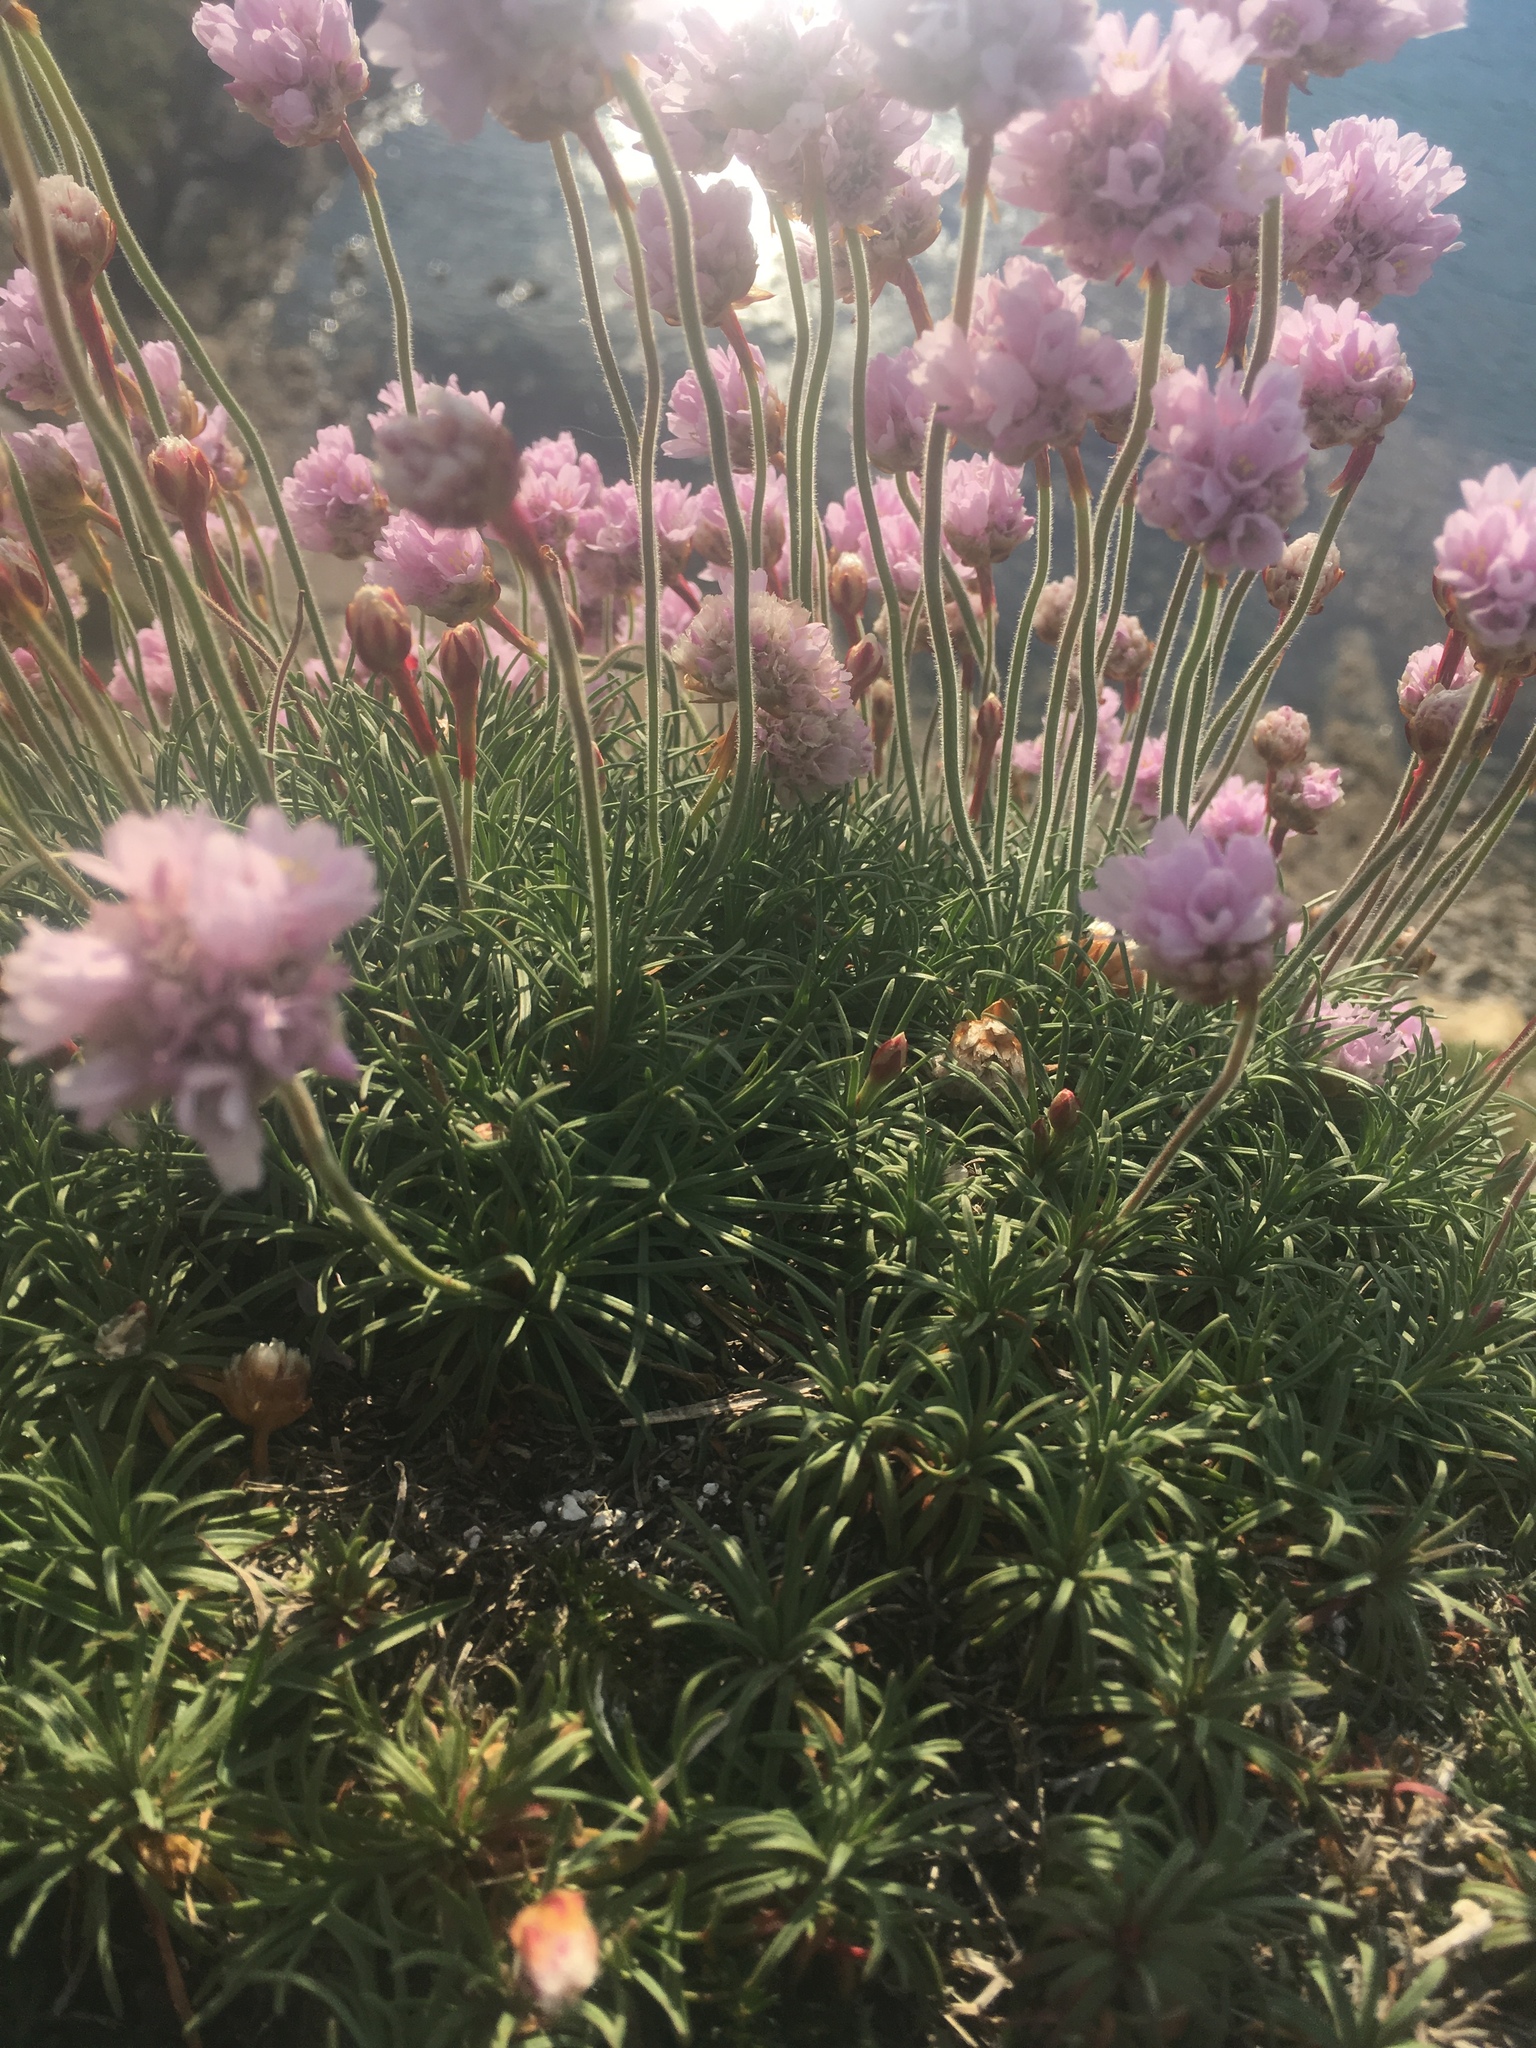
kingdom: Plantae
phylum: Tracheophyta
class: Magnoliopsida
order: Caryophyllales
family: Plumbaginaceae
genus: Armeria
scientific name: Armeria maritima
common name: Thrift
